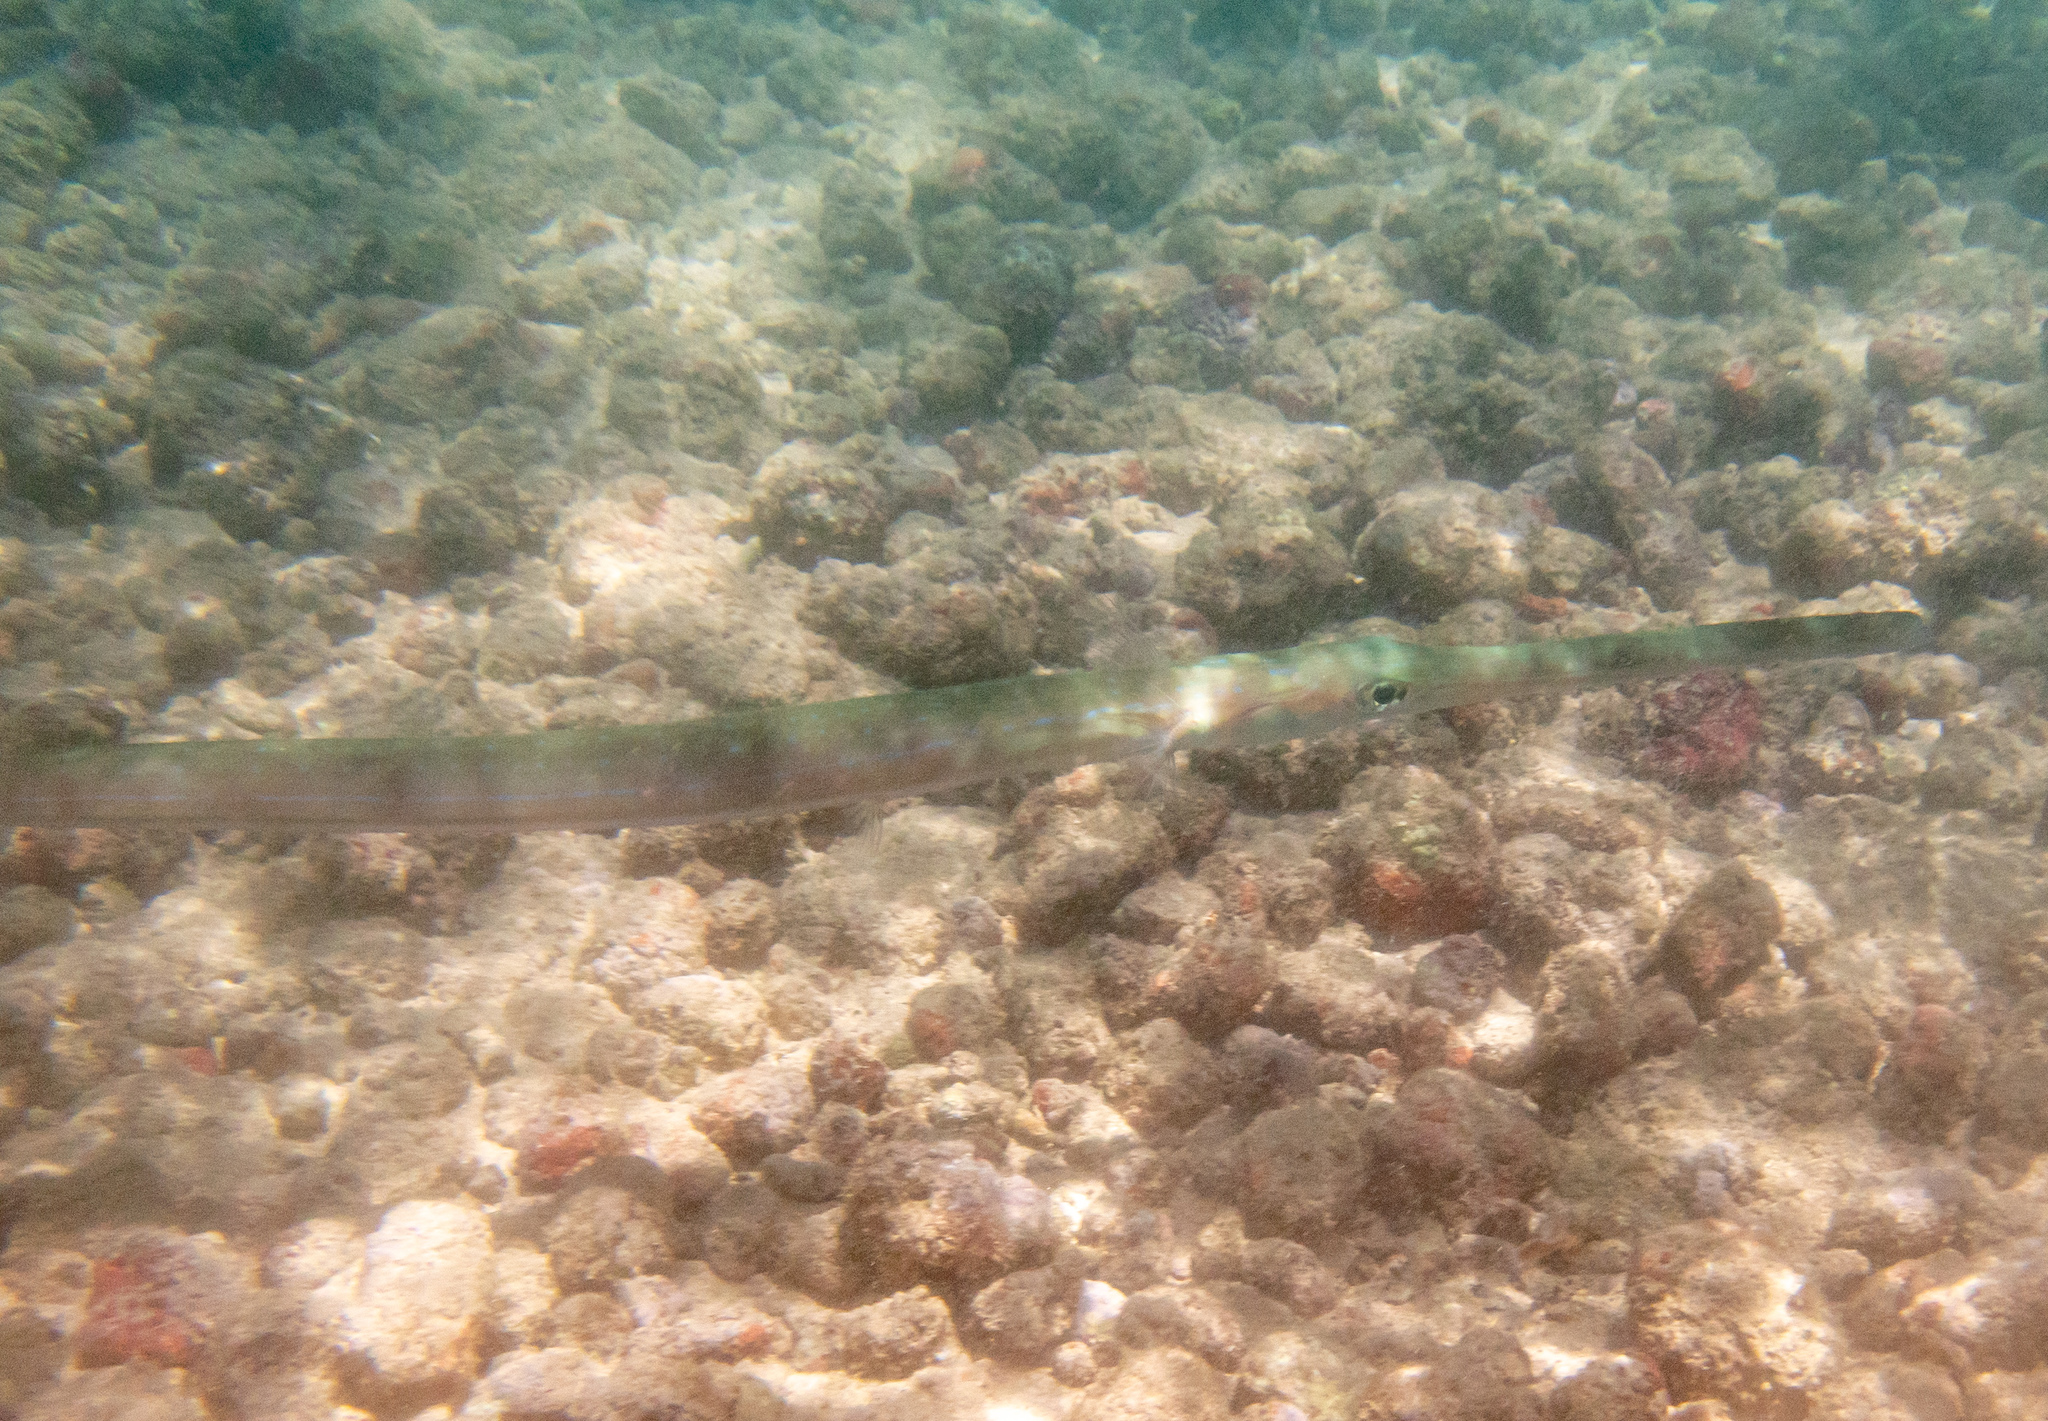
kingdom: Animalia
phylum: Chordata
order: Syngnathiformes
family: Fistulariidae
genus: Fistularia
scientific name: Fistularia commersonii
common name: Bluespotted cornetfish
